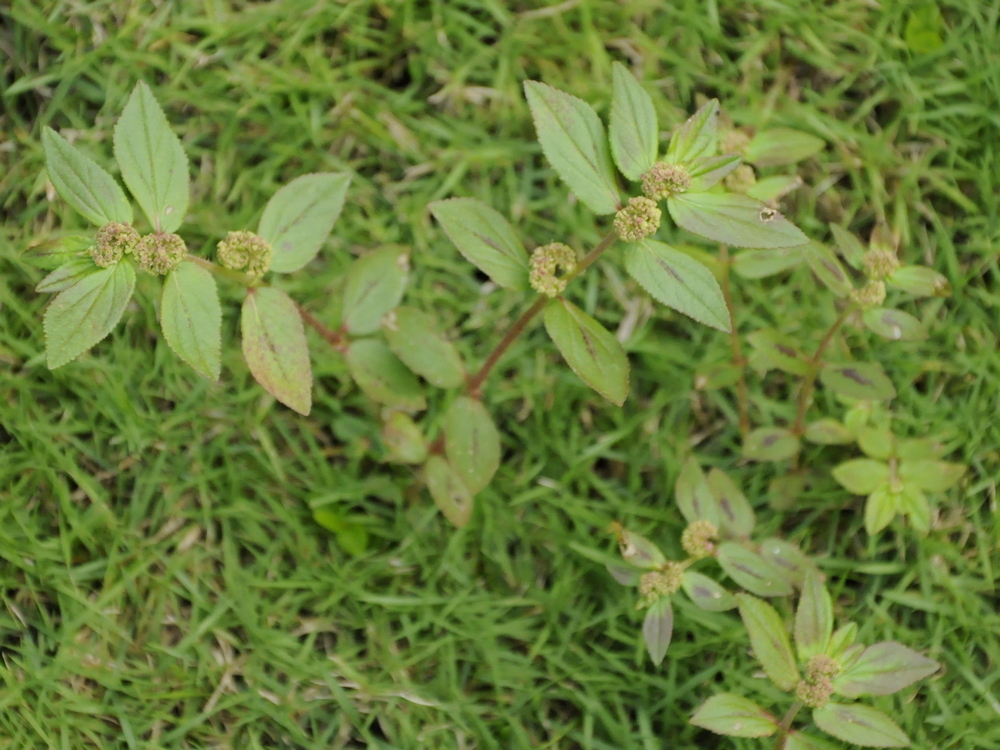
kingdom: Plantae
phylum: Tracheophyta
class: Magnoliopsida
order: Malpighiales
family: Euphorbiaceae
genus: Euphorbia
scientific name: Euphorbia hirta
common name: Pillpod sandmat
